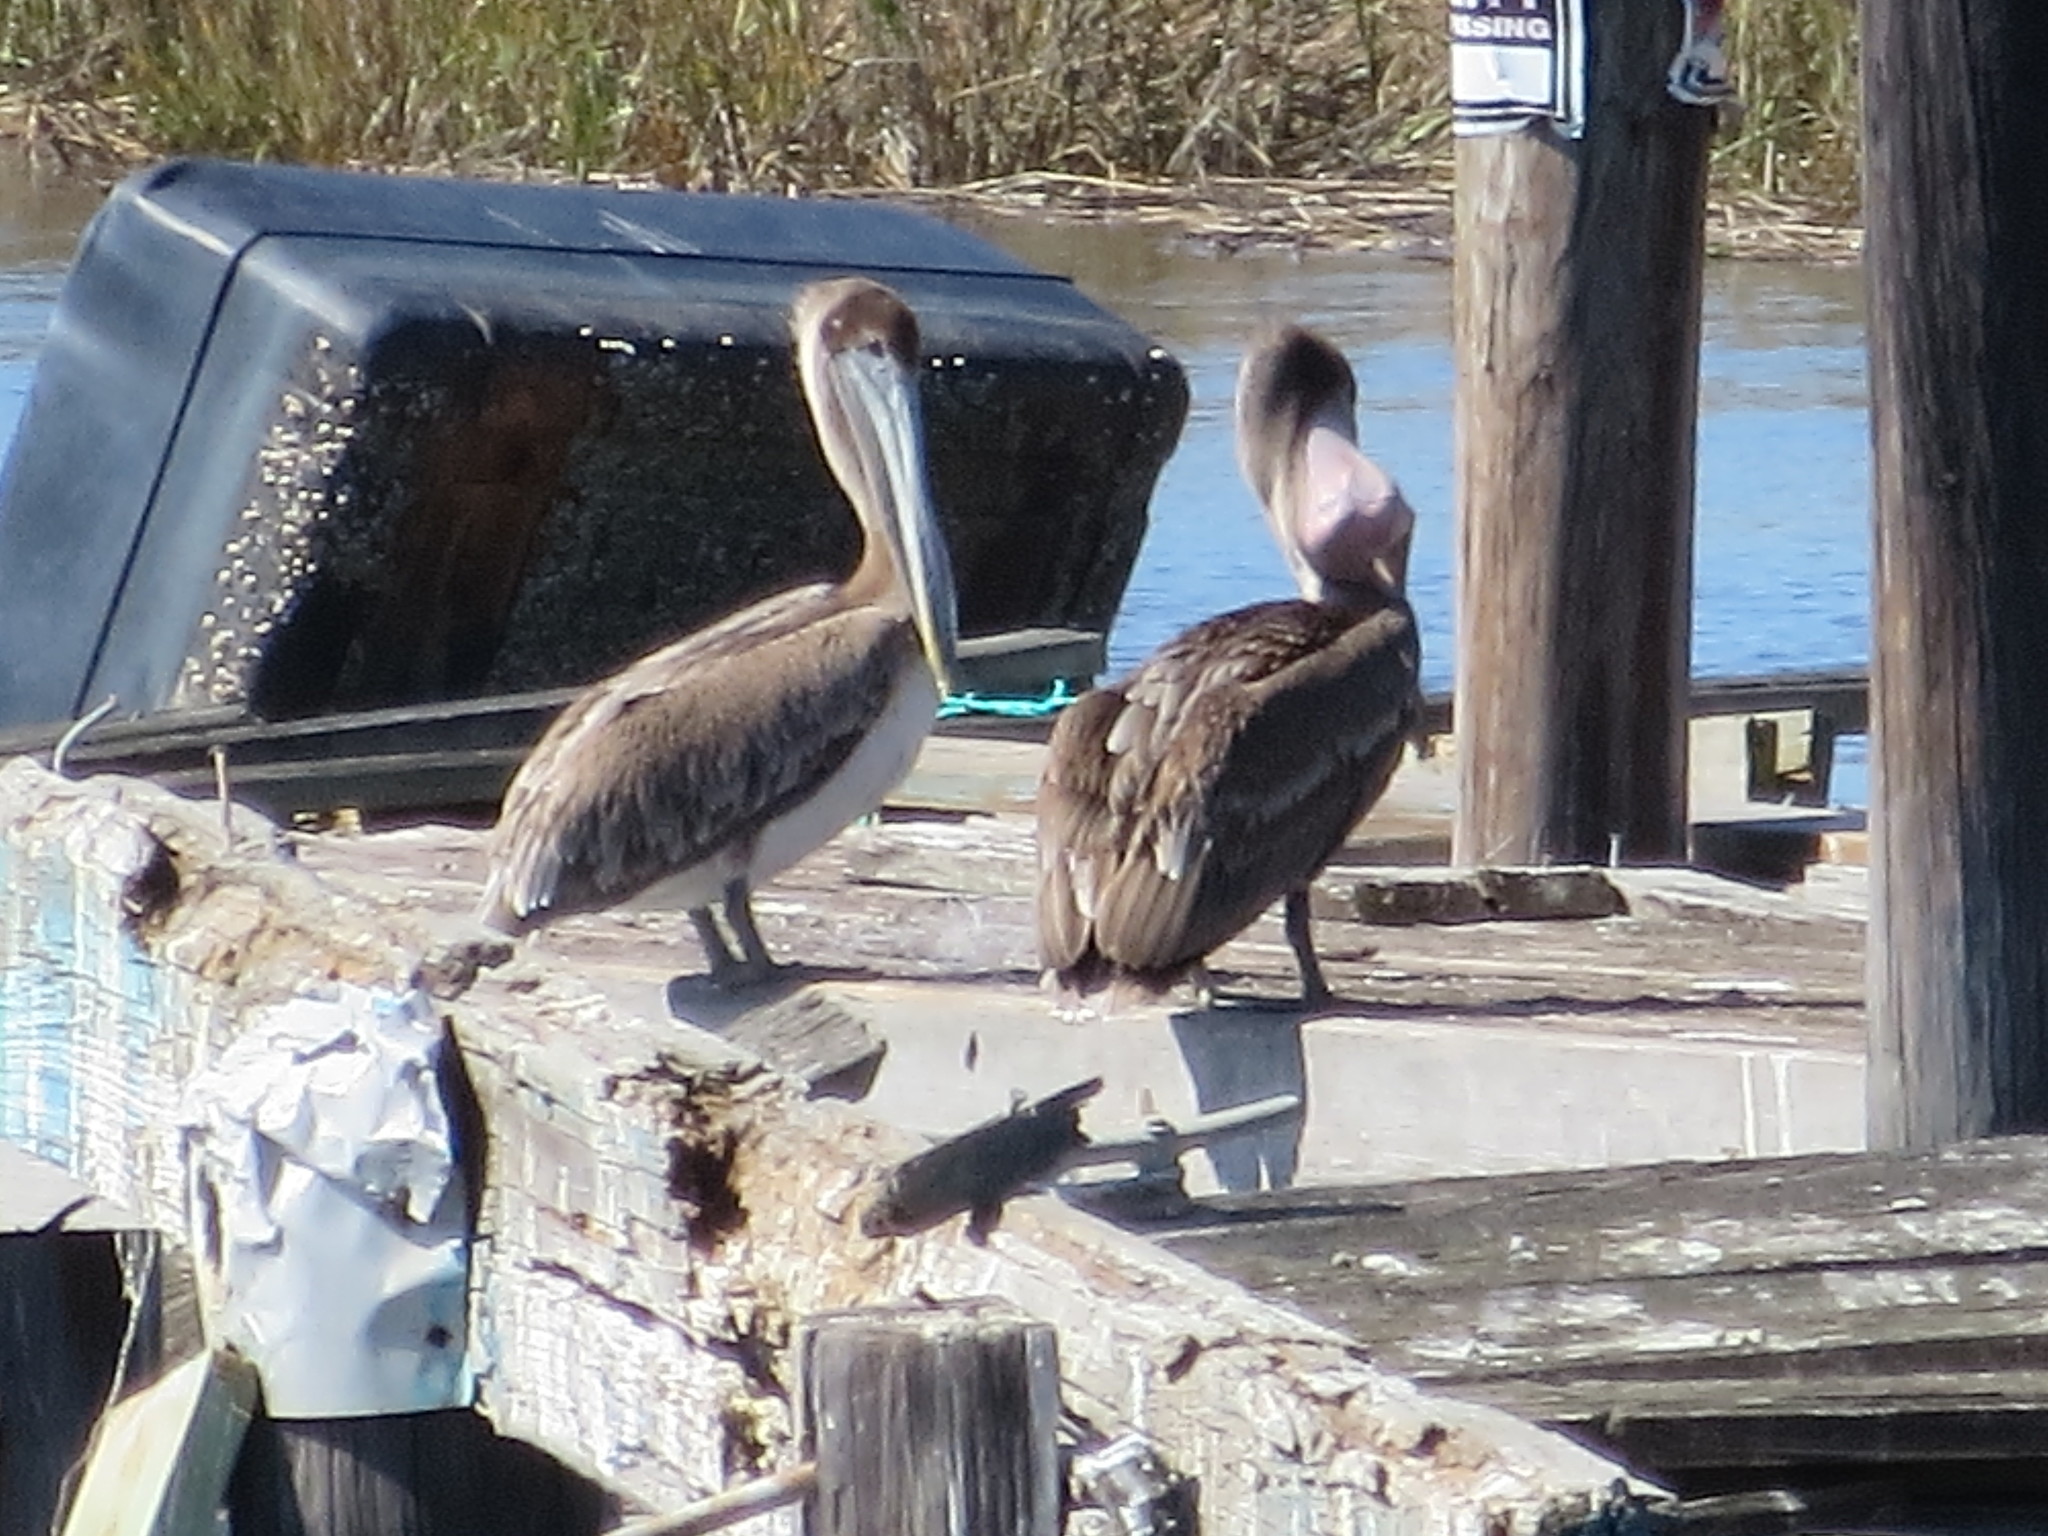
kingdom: Animalia
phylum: Chordata
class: Aves
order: Pelecaniformes
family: Pelecanidae
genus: Pelecanus
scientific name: Pelecanus occidentalis
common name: Brown pelican
